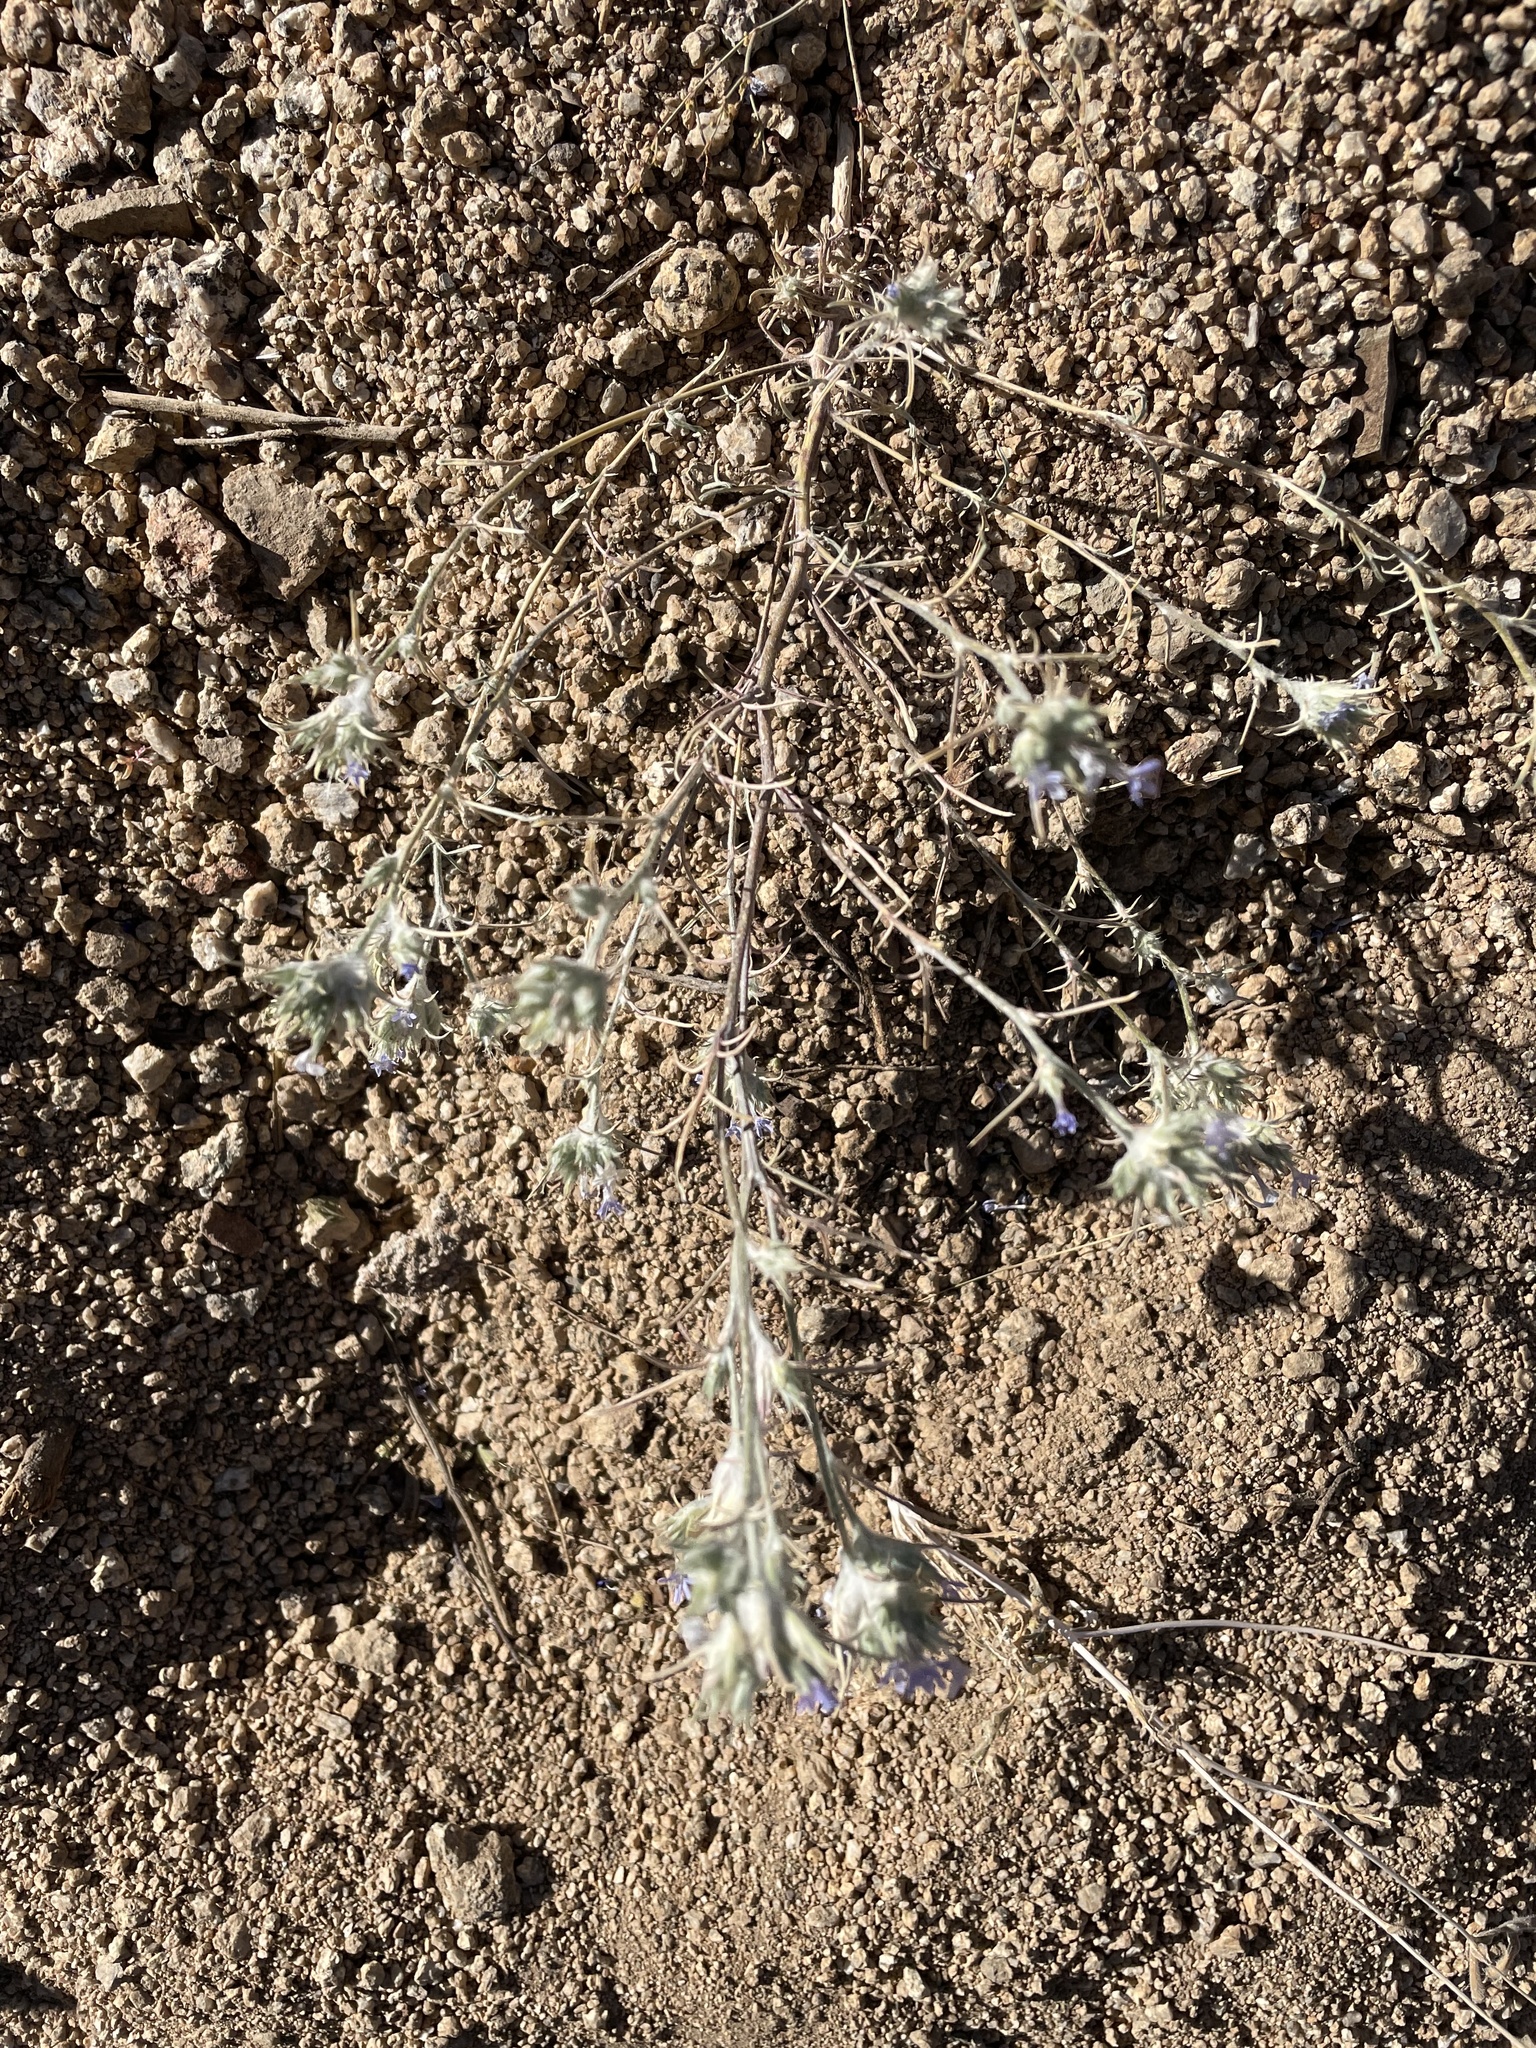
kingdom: Plantae
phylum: Tracheophyta
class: Magnoliopsida
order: Ericales
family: Polemoniaceae
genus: Eriastrum
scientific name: Eriastrum wilcoxii
